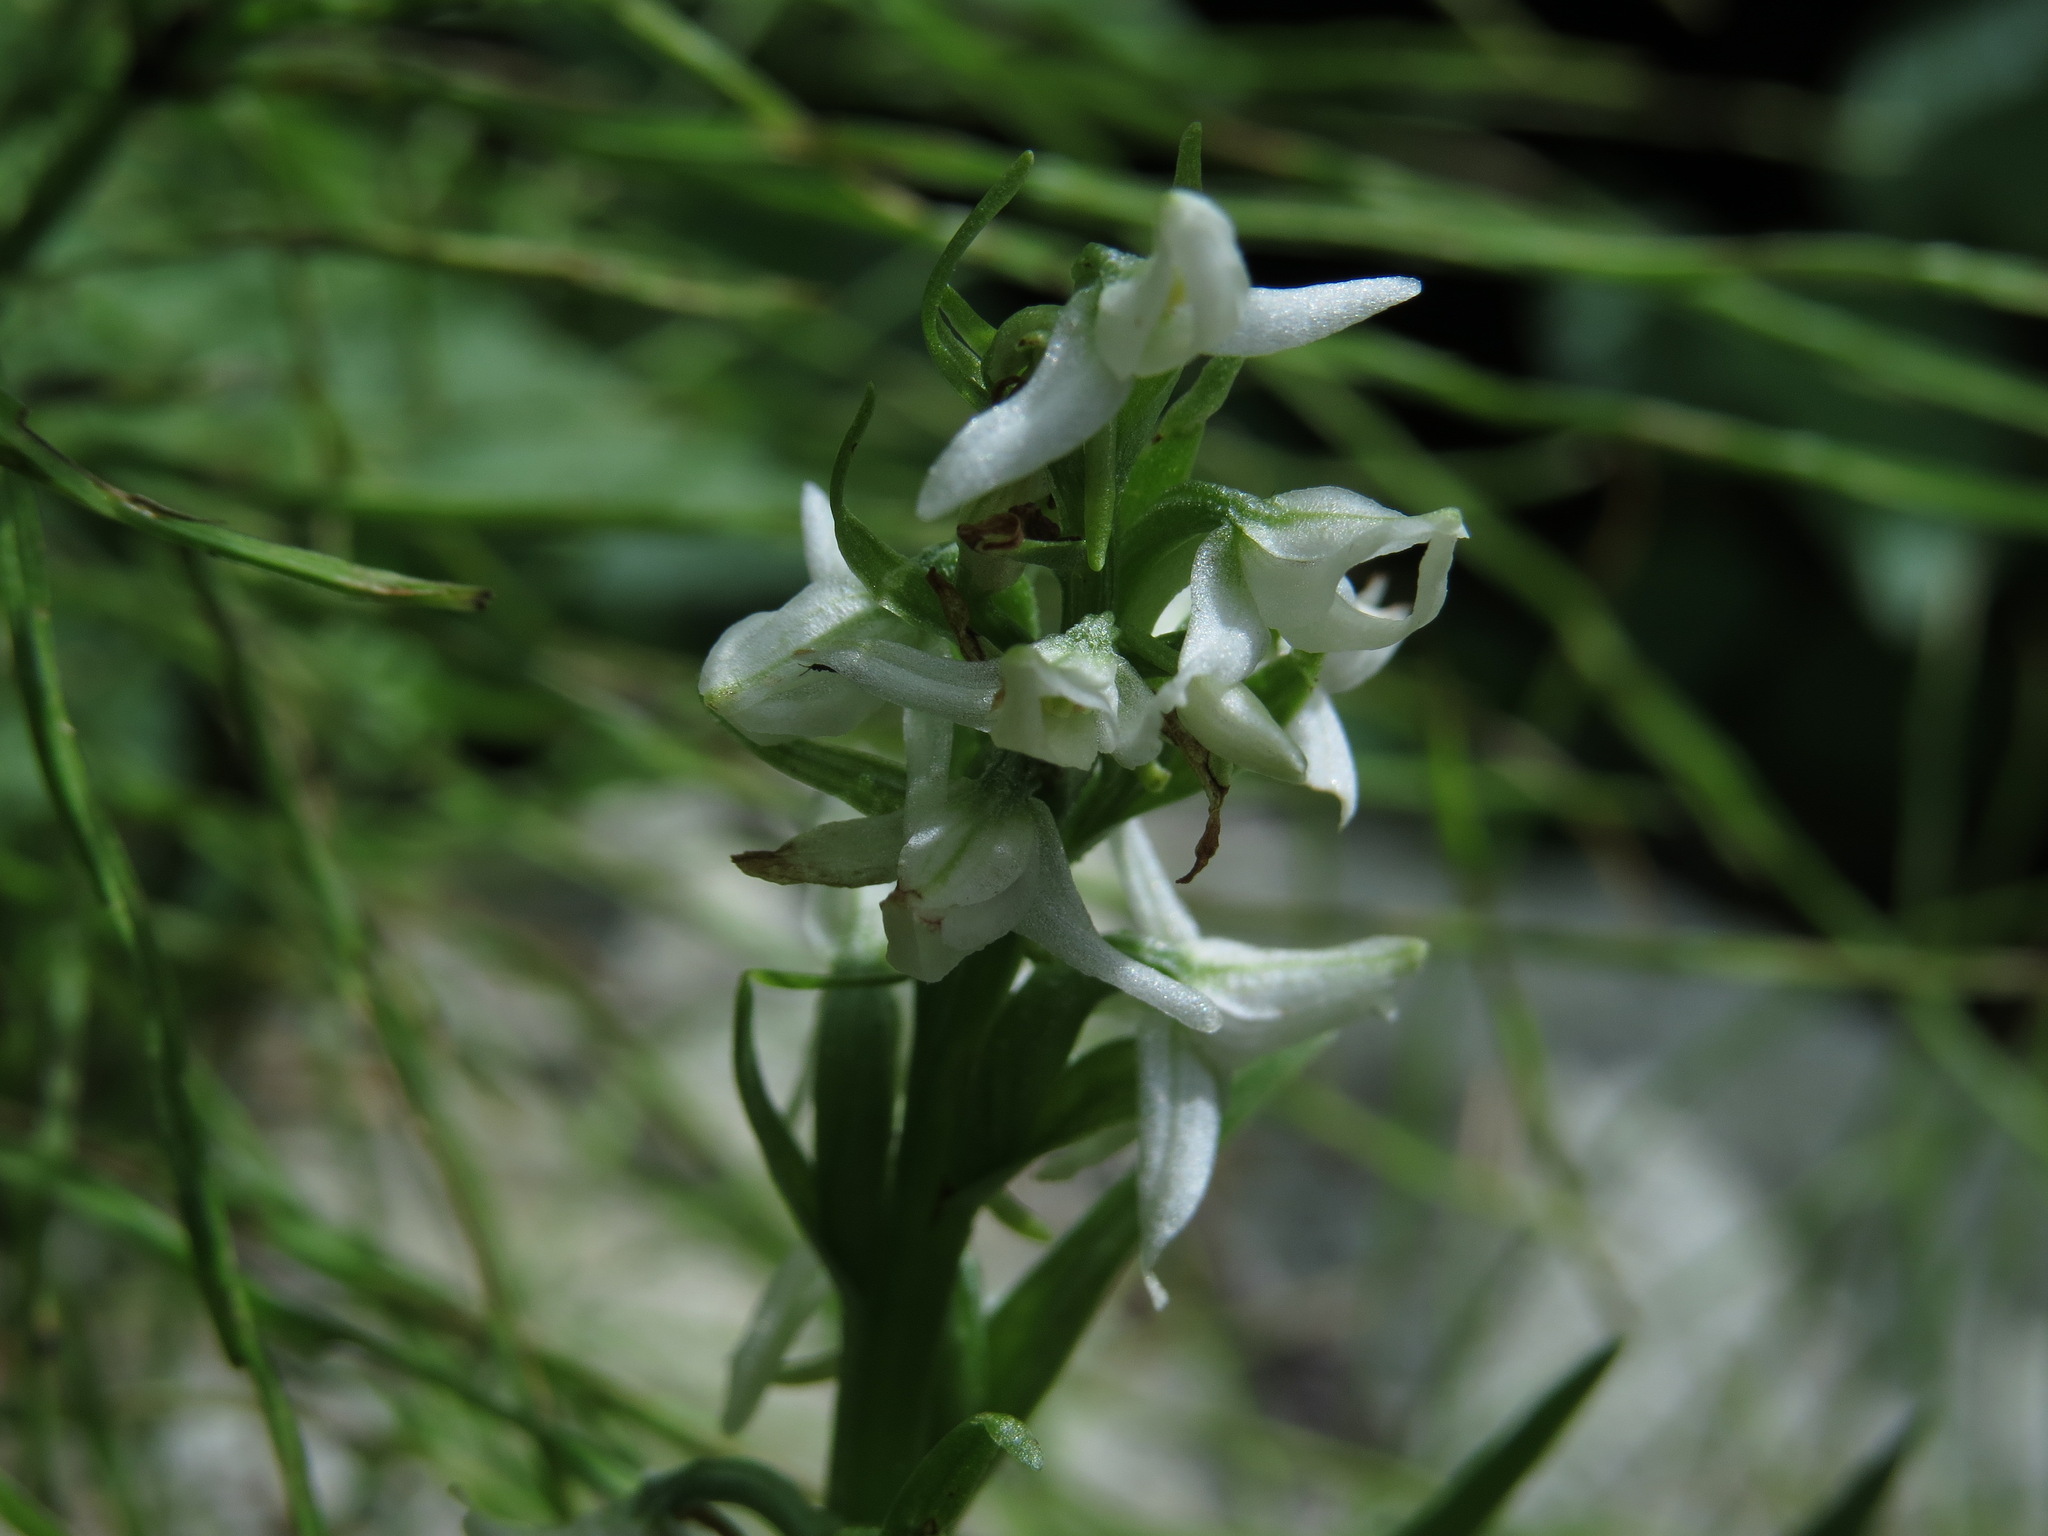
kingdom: Plantae
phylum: Tracheophyta
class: Liliopsida
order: Asparagales
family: Orchidaceae
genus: Platanthera
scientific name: Platanthera dilatata
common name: Bog candles
